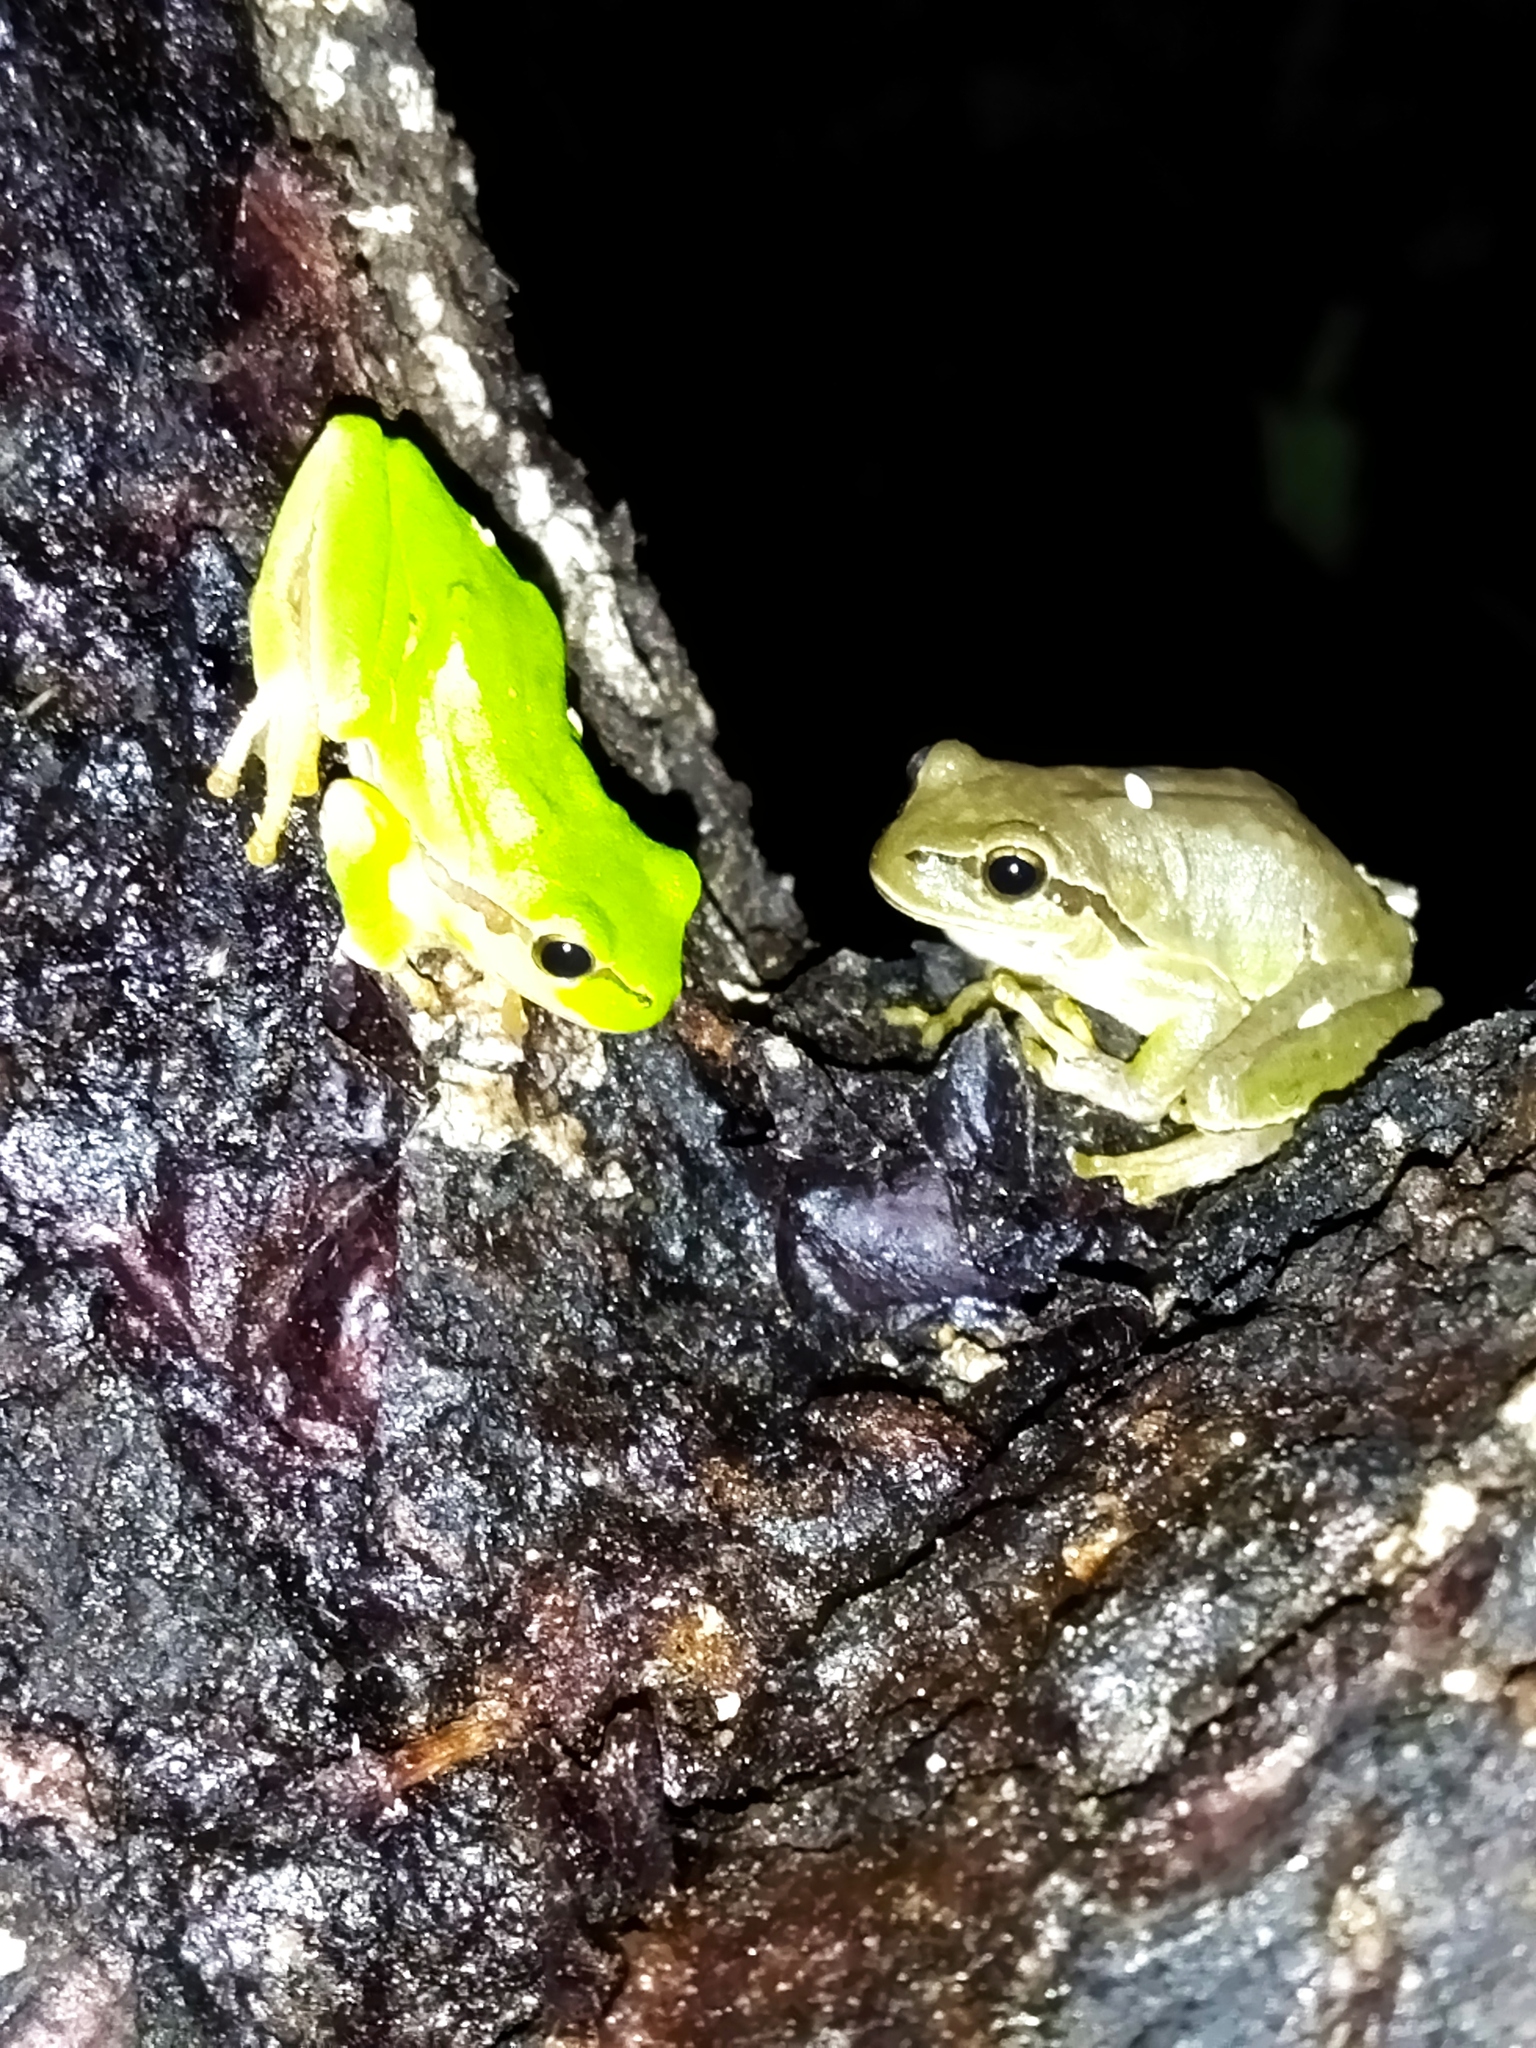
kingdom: Animalia
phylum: Chordata
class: Amphibia
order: Anura
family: Hylidae
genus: Hyla
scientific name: Hyla orientalis
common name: Caucasian treefrog
